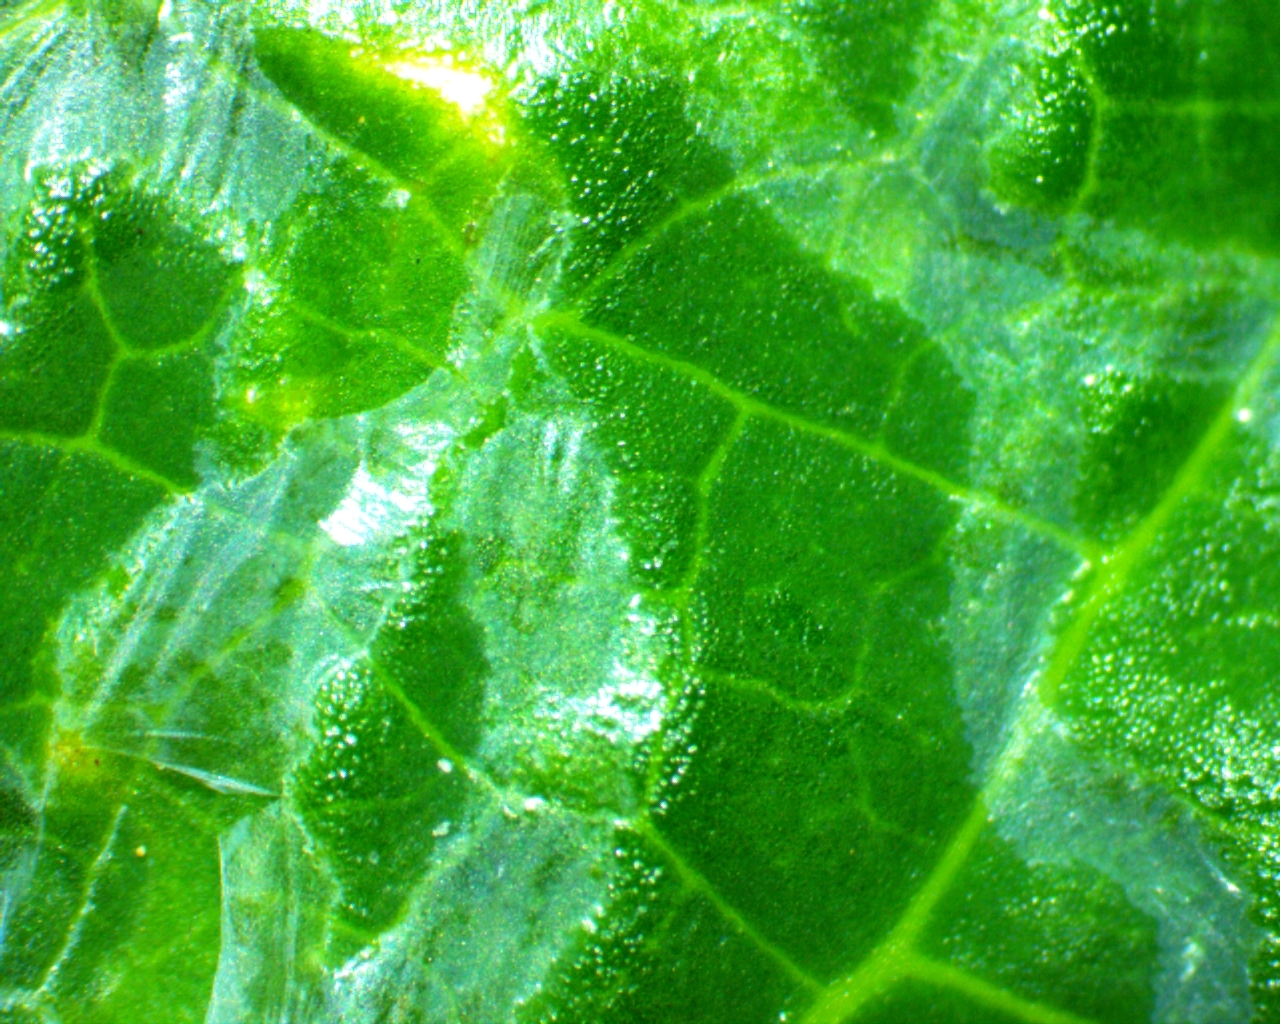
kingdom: Animalia
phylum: Arthropoda
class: Insecta
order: Diptera
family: Agromyzidae
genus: Liriomyza
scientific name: Liriomyza schmidti
